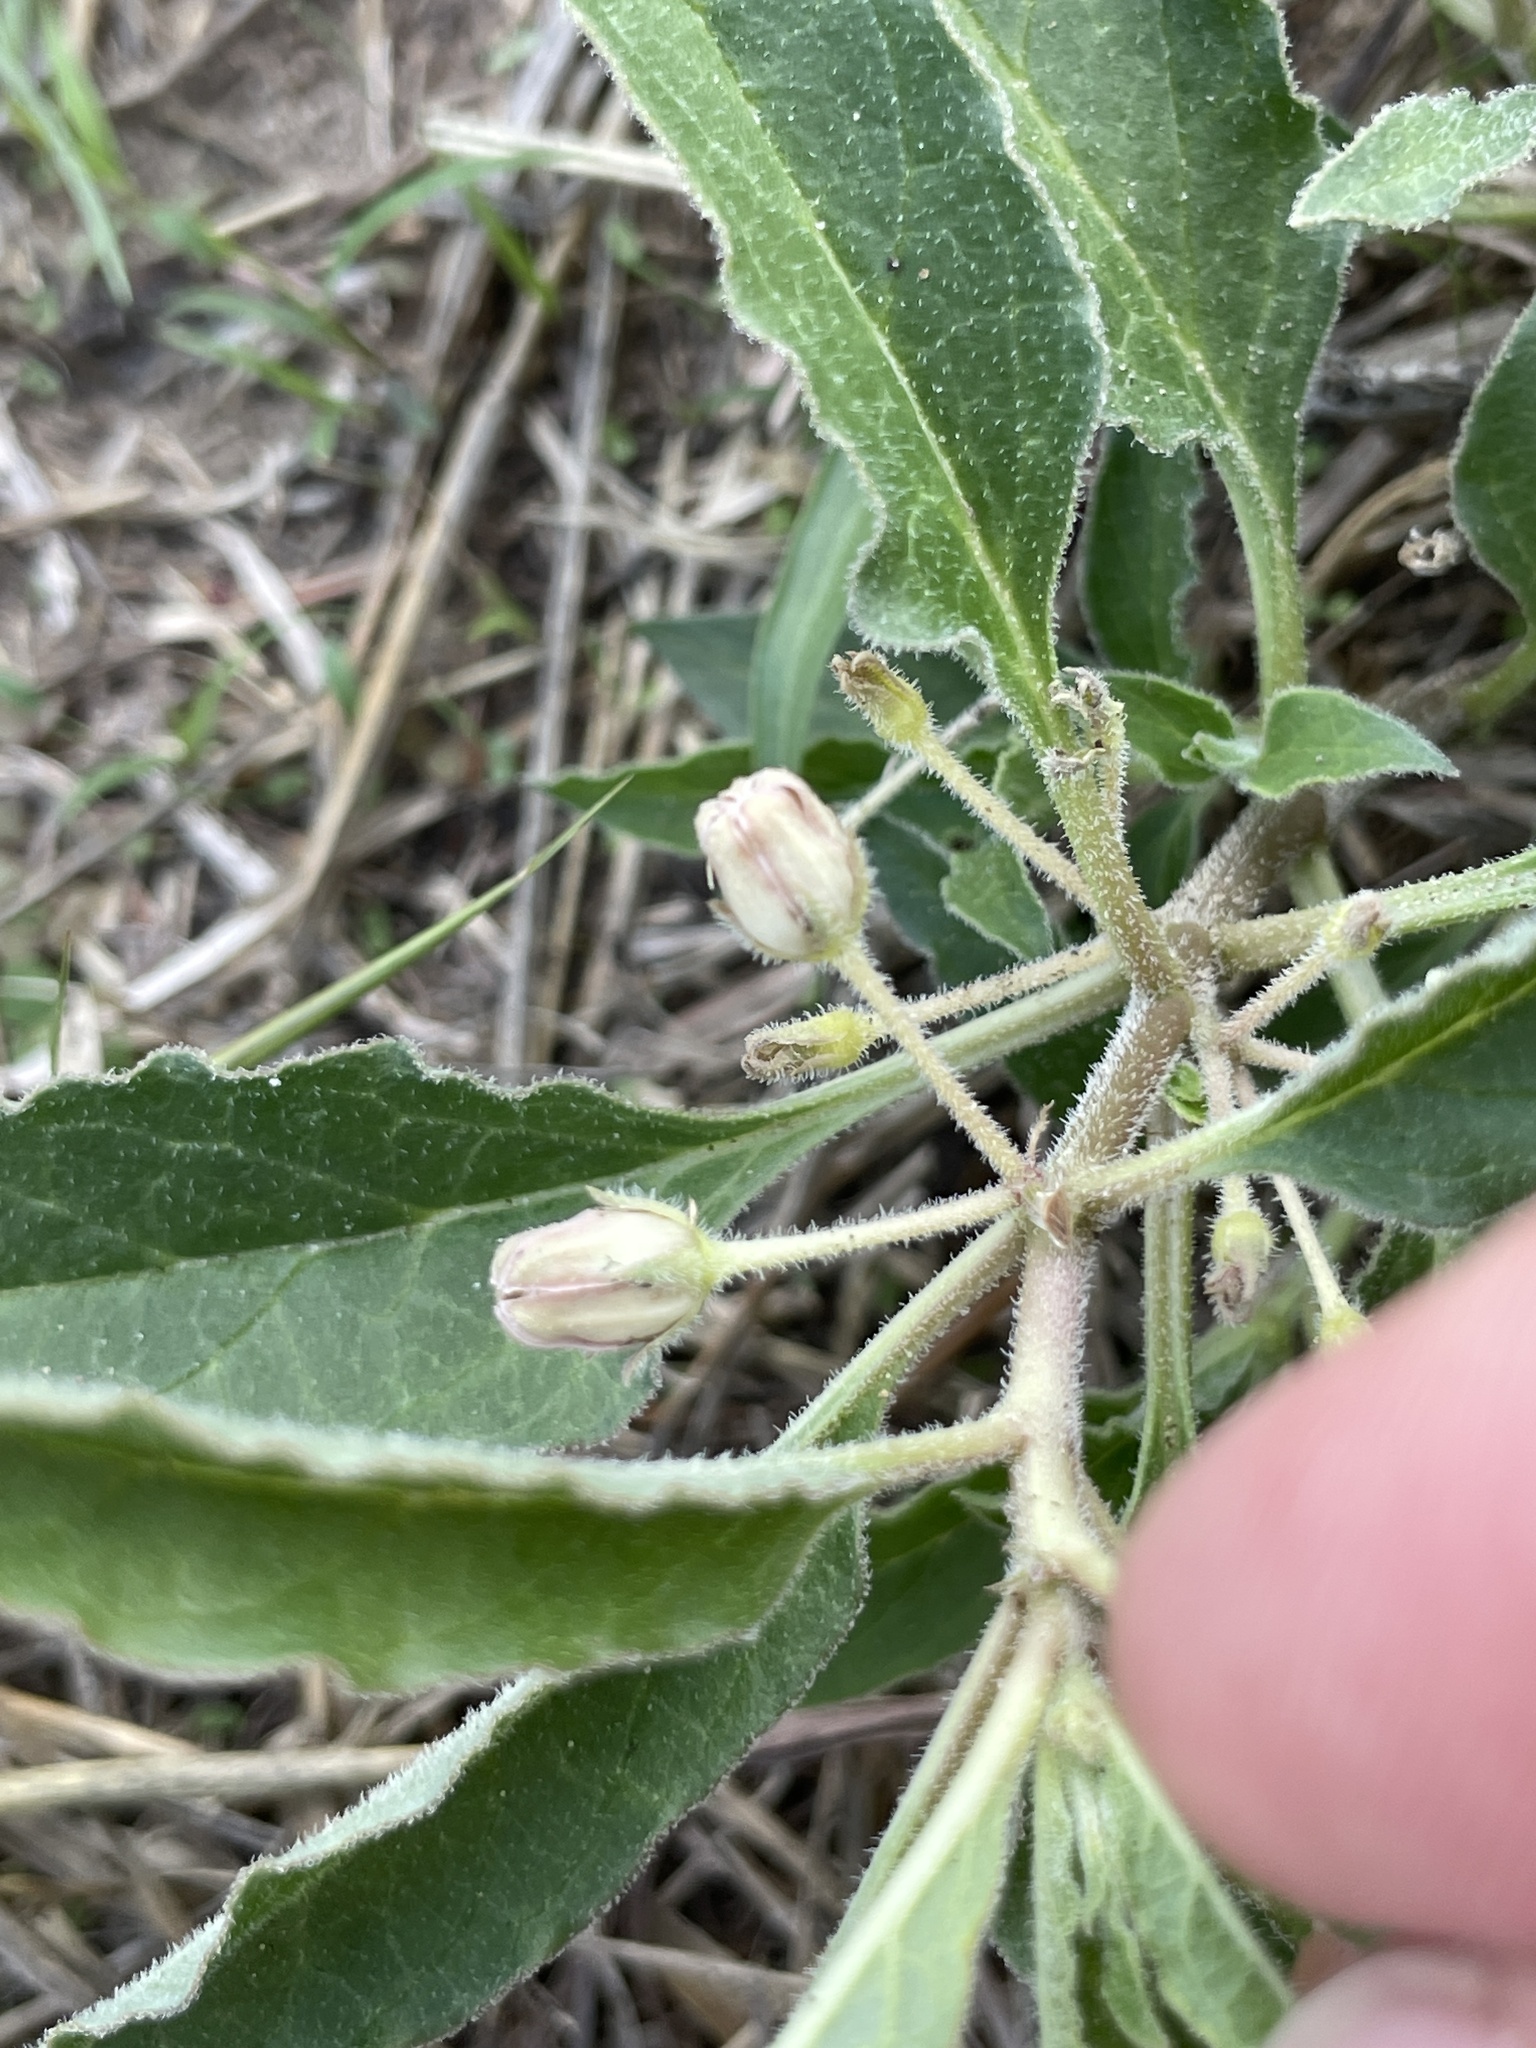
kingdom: Plantae
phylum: Tracheophyta
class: Magnoliopsida
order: Gentianales
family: Apocynaceae
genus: Asclepias
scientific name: Asclepias emoryi
